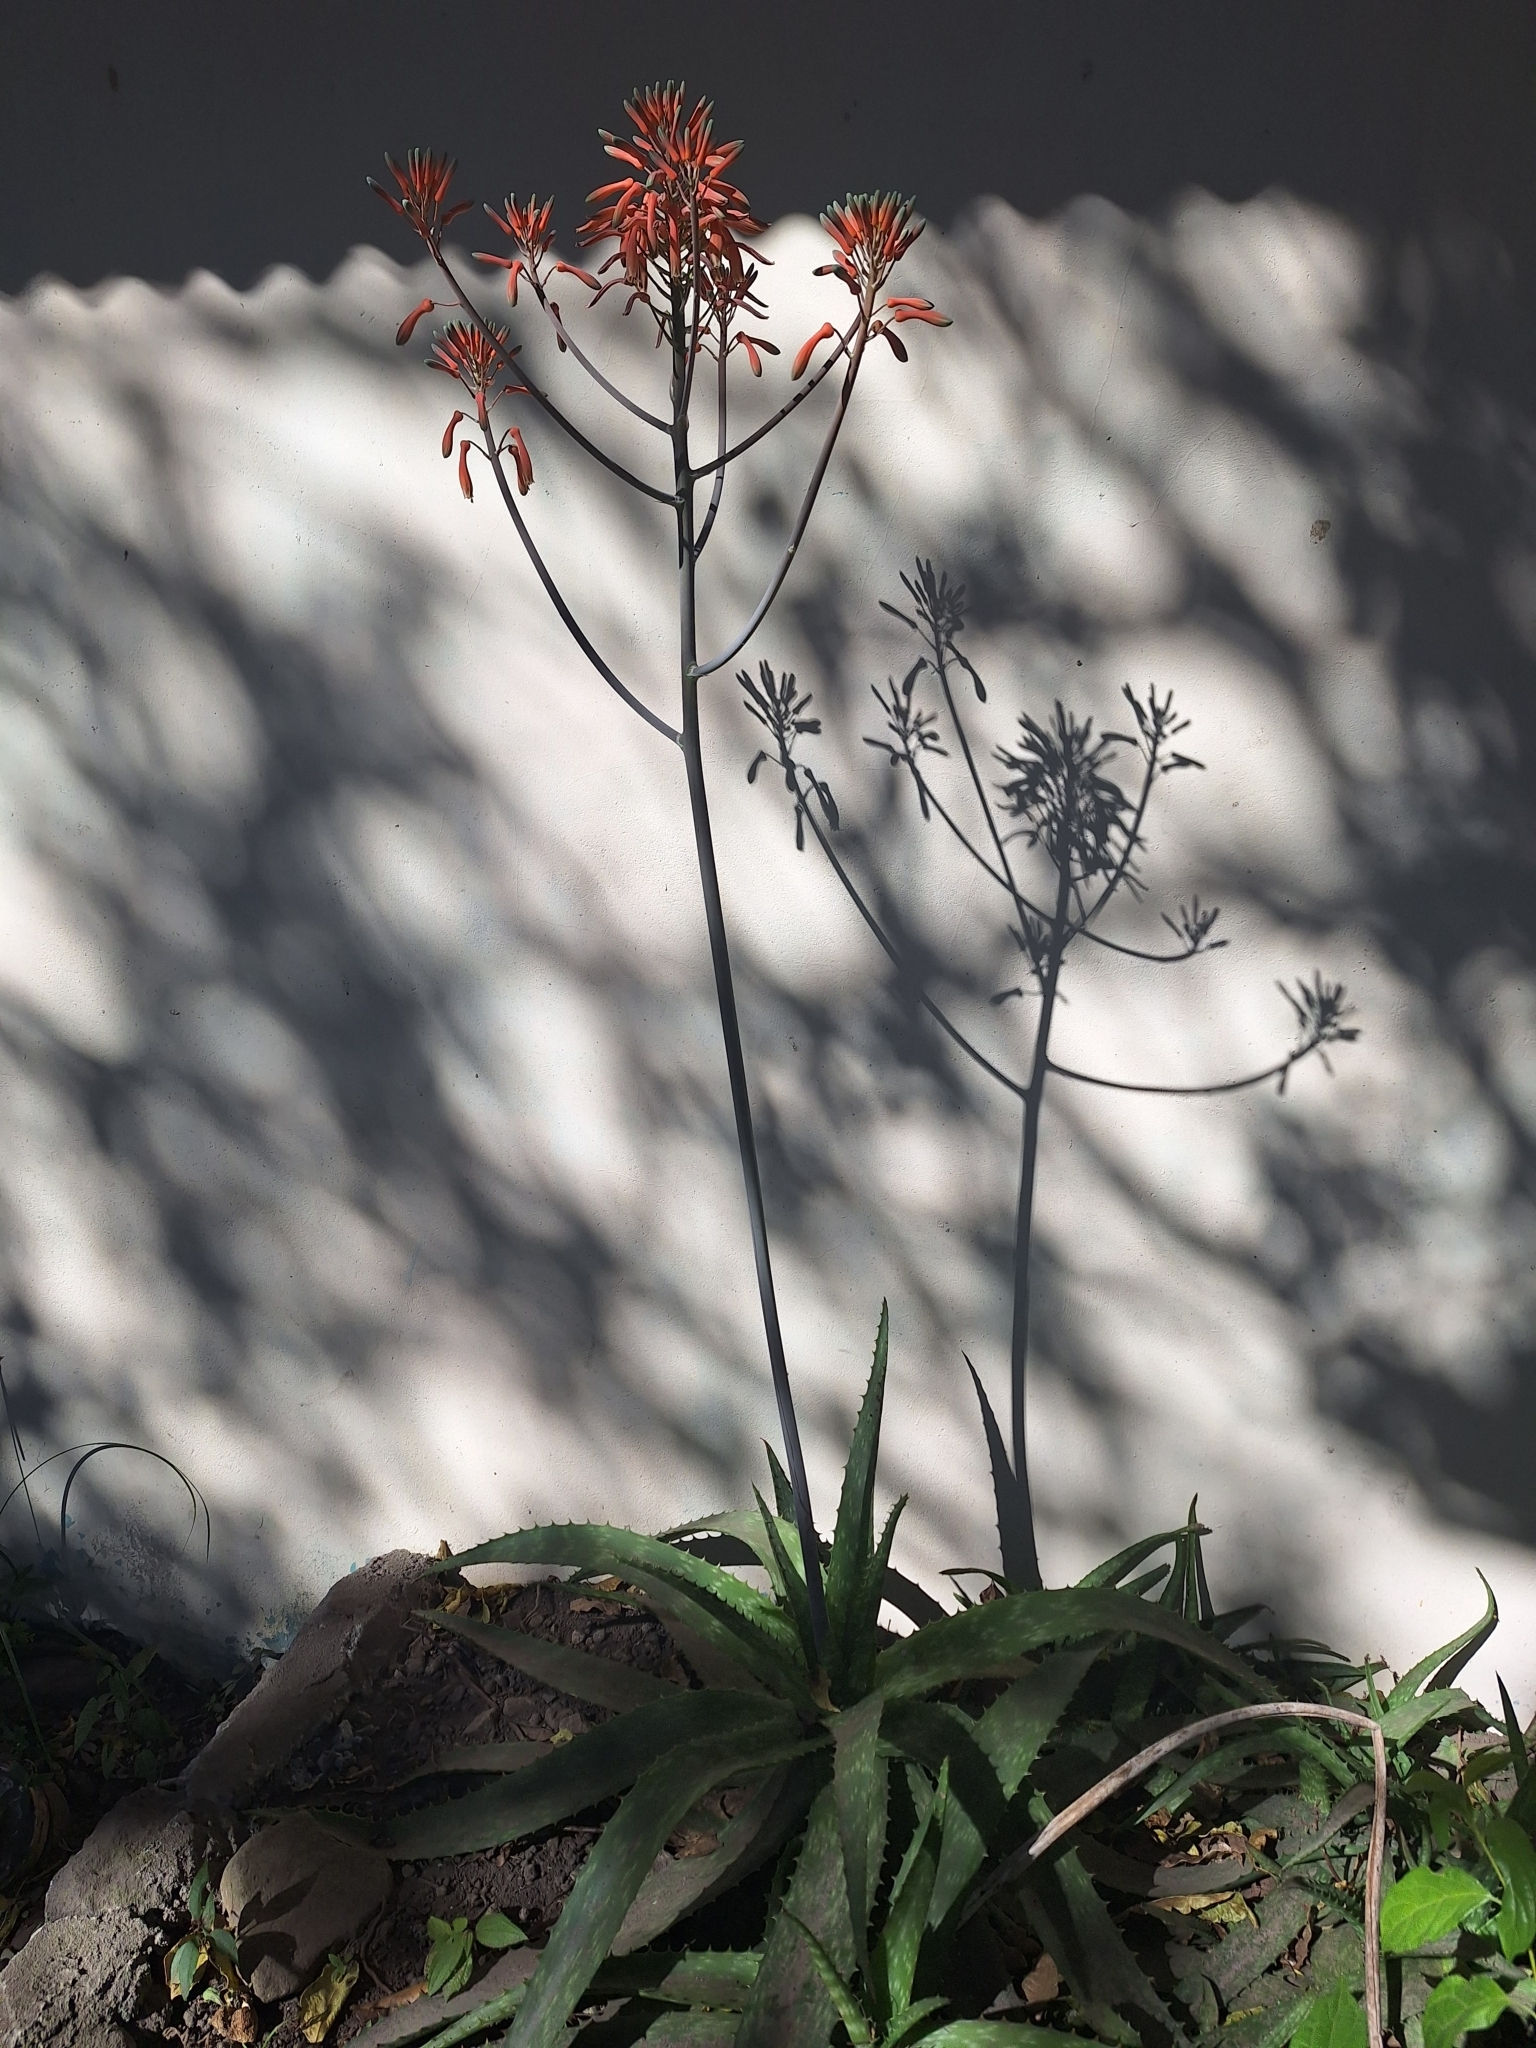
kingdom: Plantae
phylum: Tracheophyta
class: Liliopsida
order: Asparagales
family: Asphodelaceae
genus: Aloe
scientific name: Aloe maculata
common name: Broadleaf aloe
